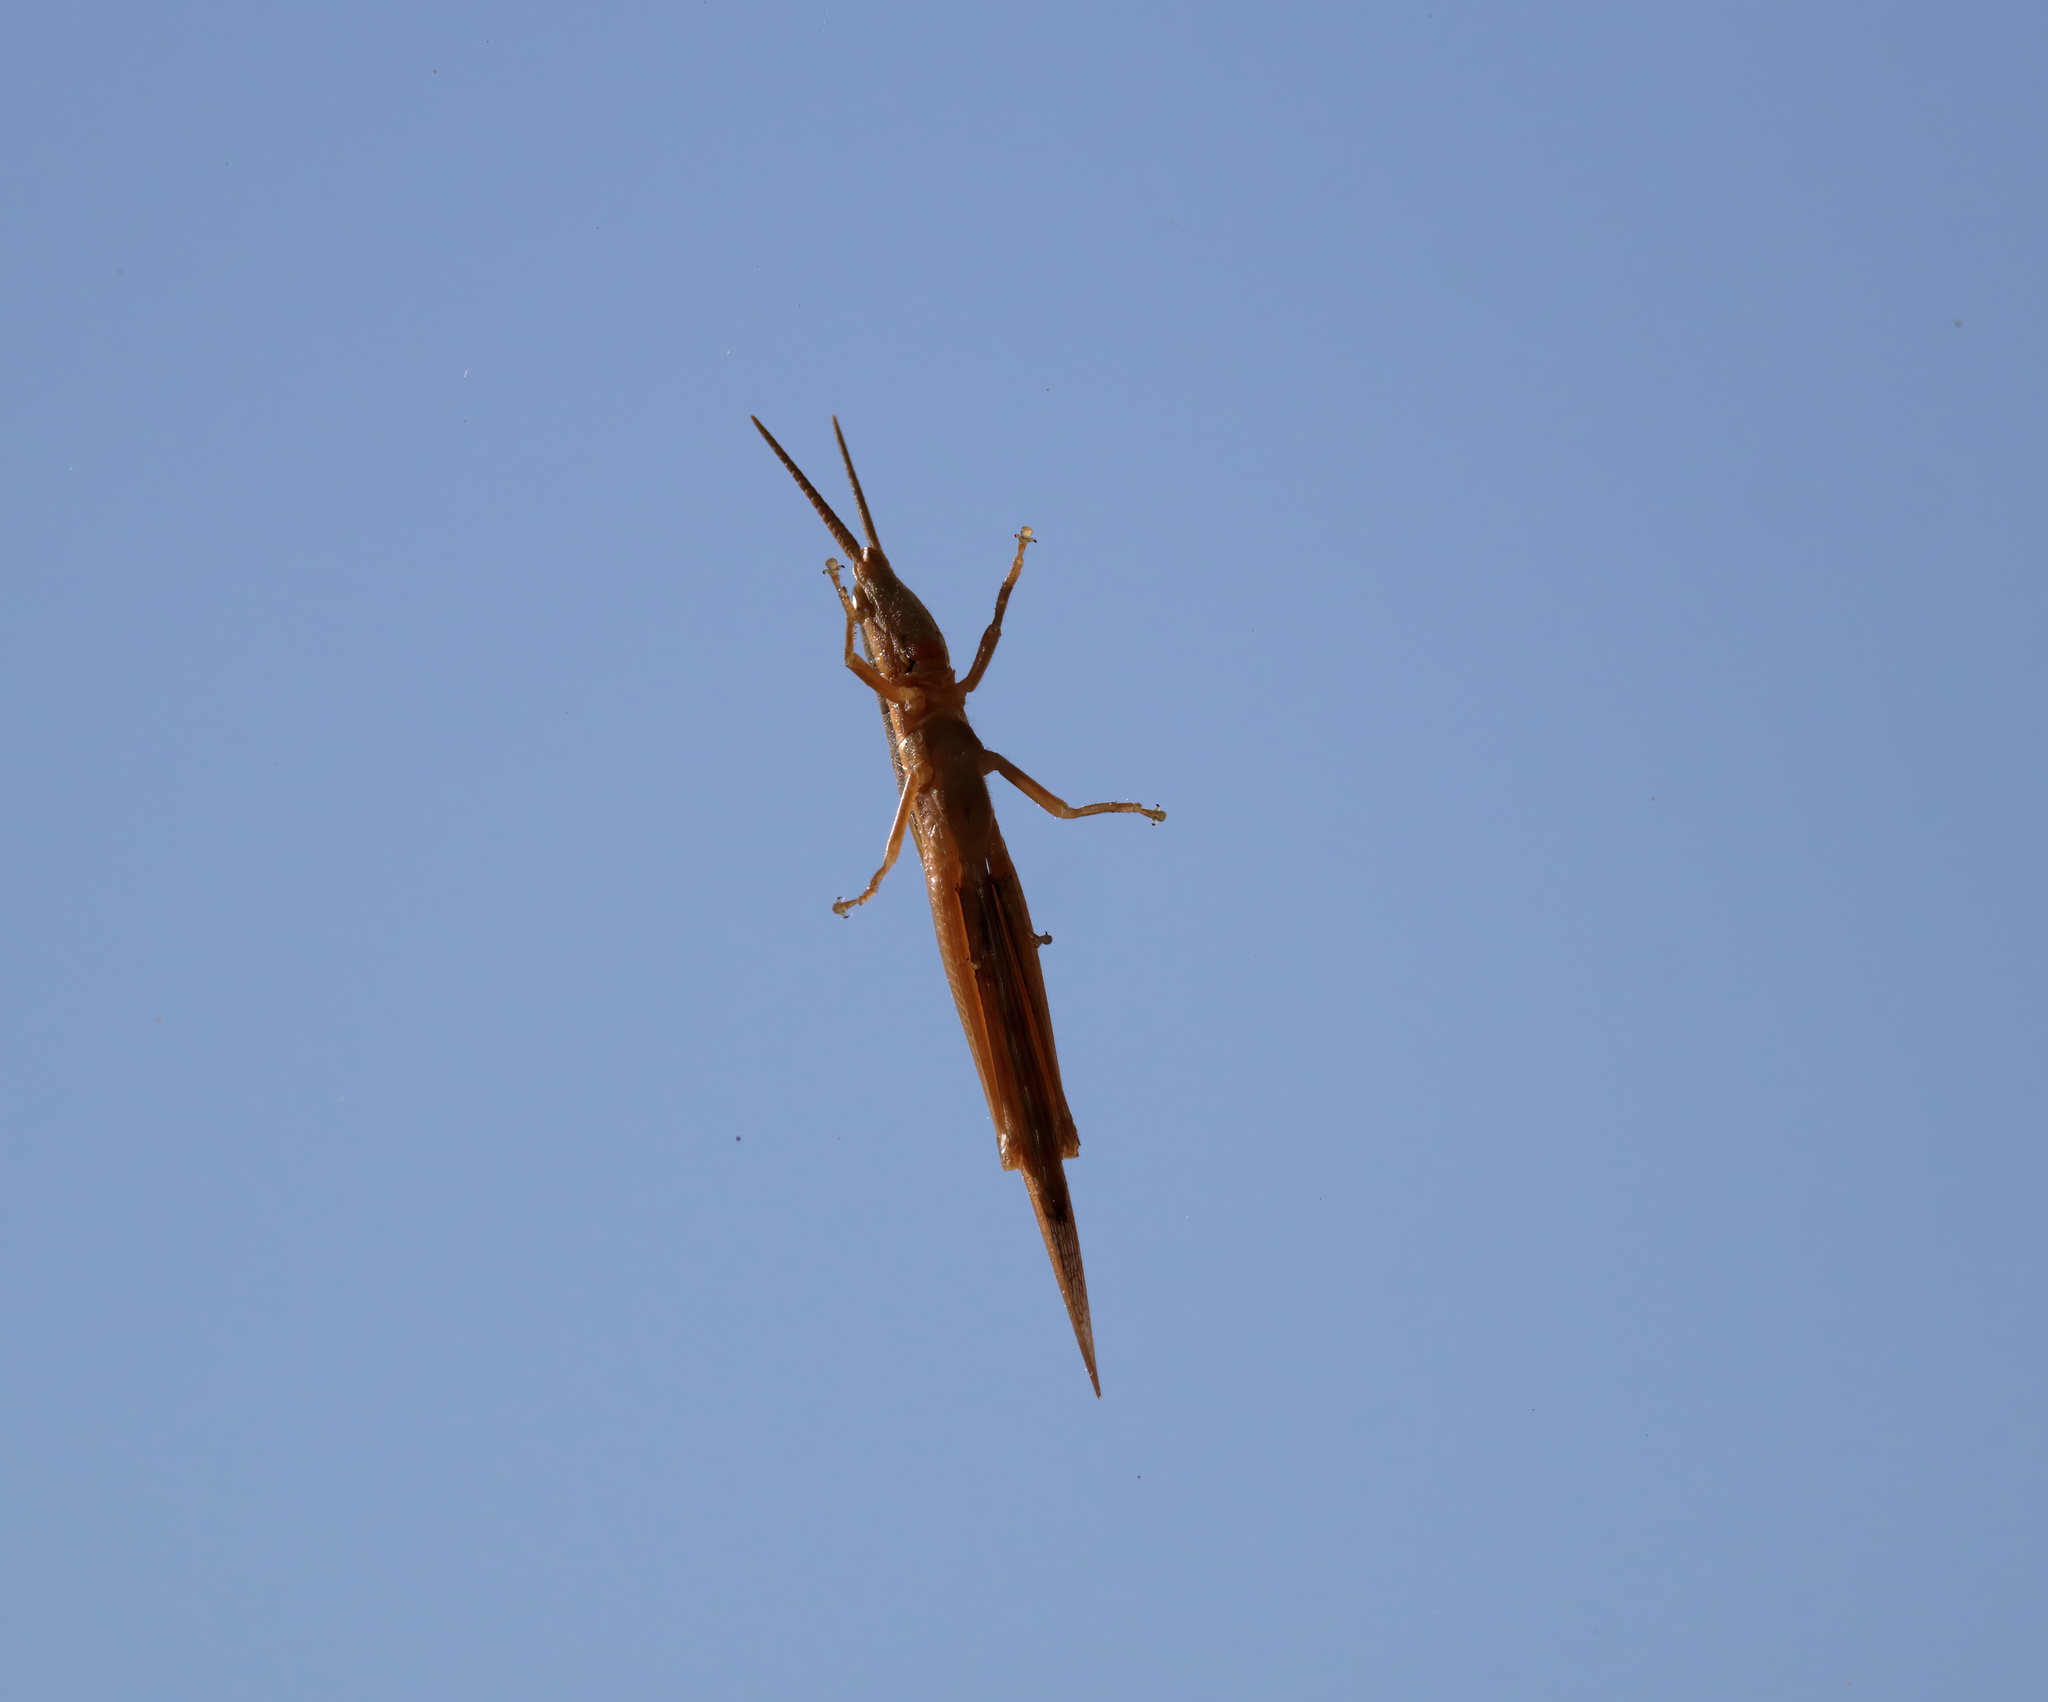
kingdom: Animalia
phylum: Arthropoda
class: Insecta
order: Orthoptera
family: Acrididae
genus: Leptysma
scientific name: Leptysma marginicollis
